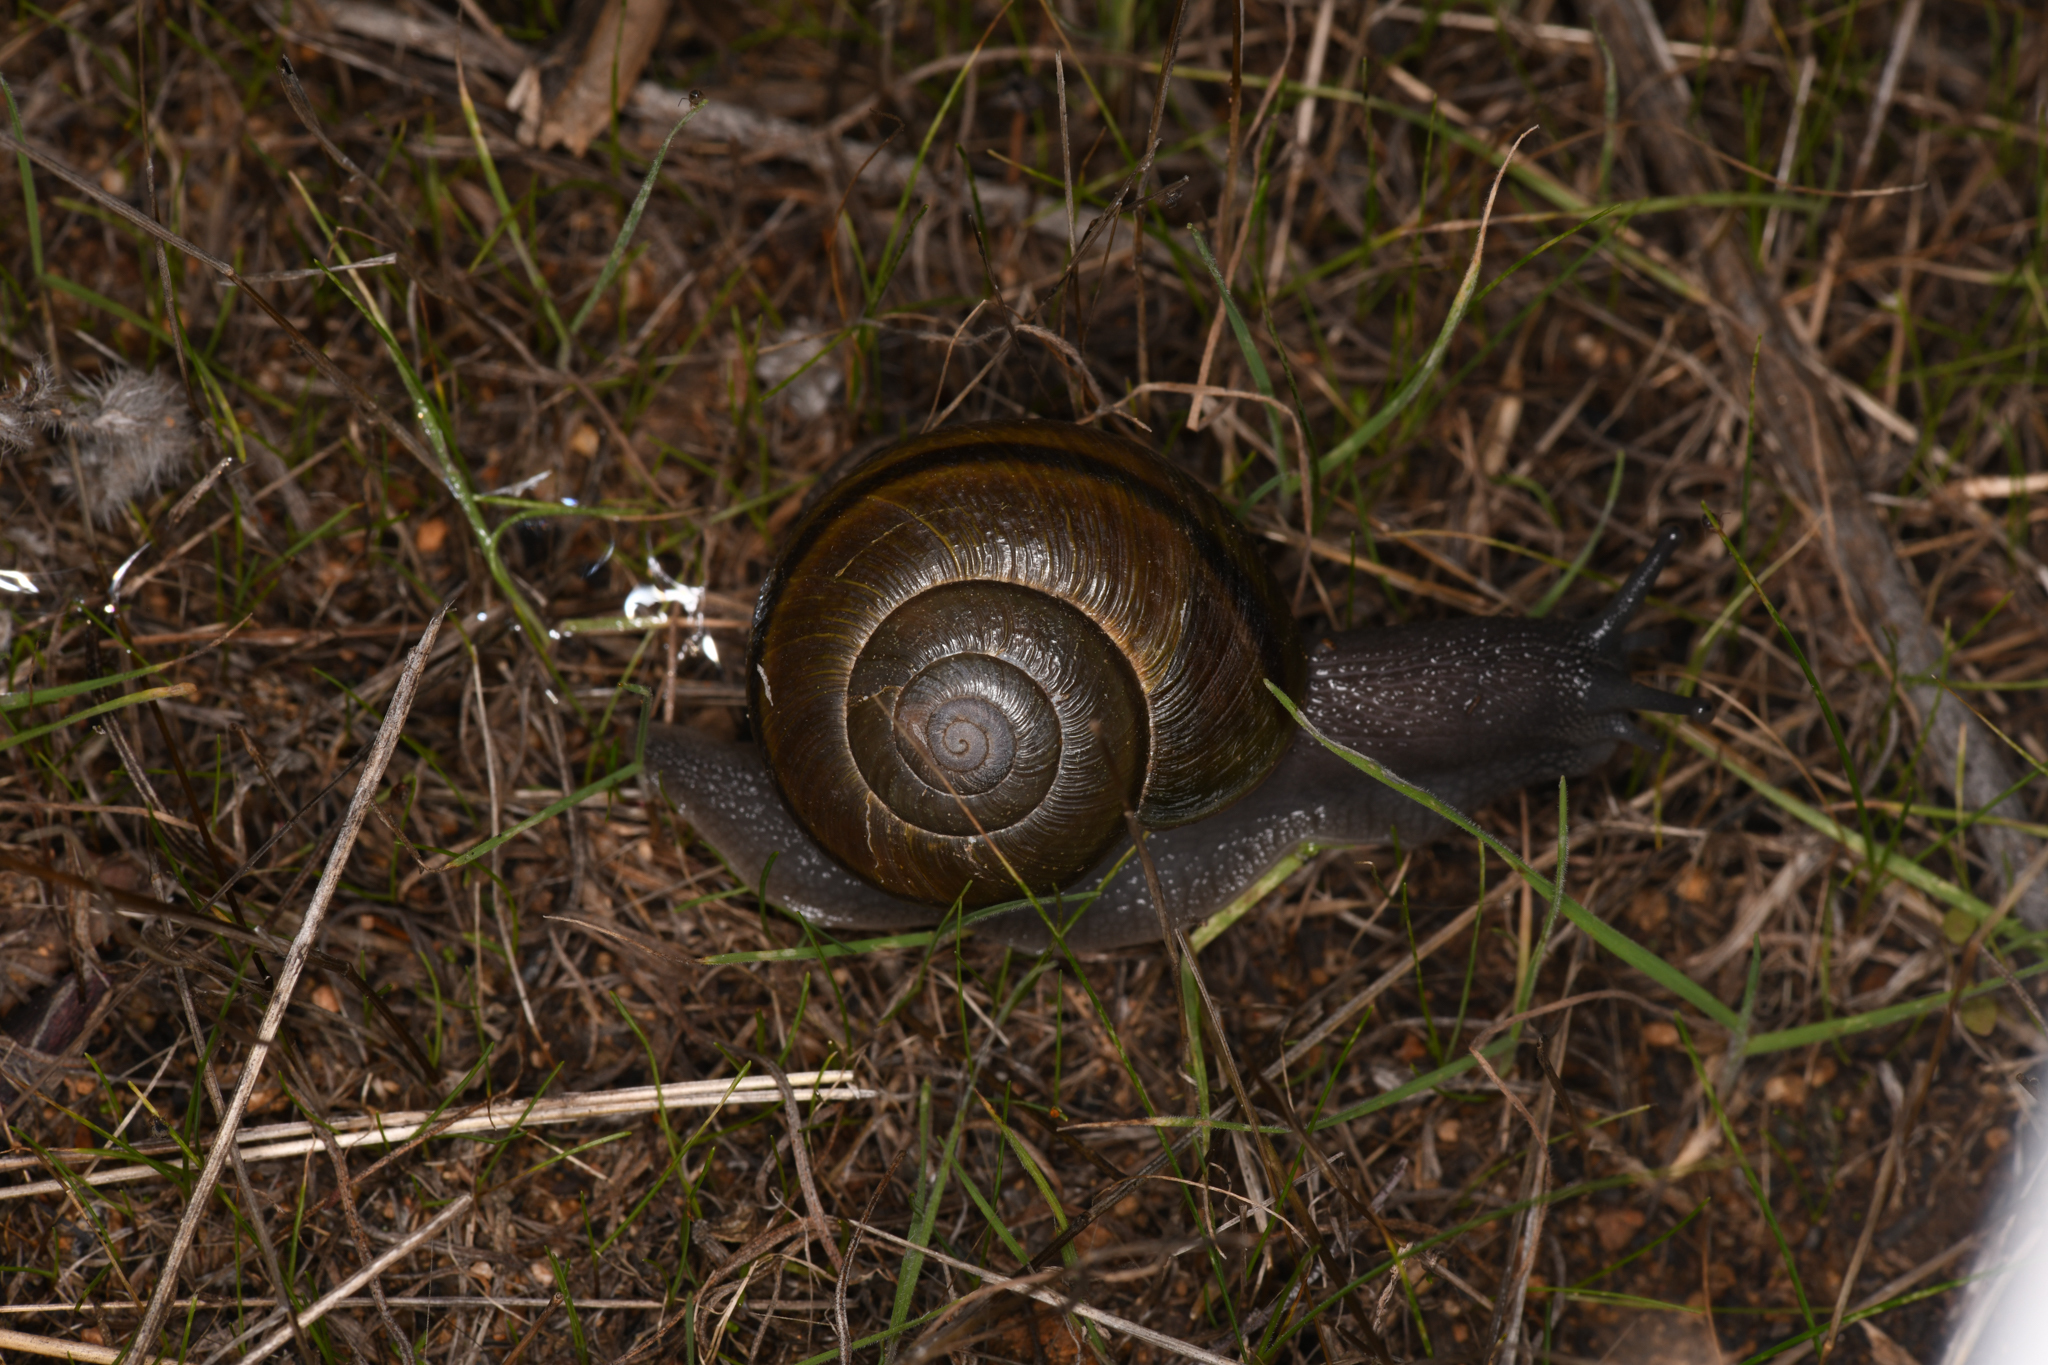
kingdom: Animalia
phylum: Mollusca
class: Gastropoda
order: Stylommatophora
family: Xanthonychidae
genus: Helminthoglypta
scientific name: Helminthoglypta tudiculata
